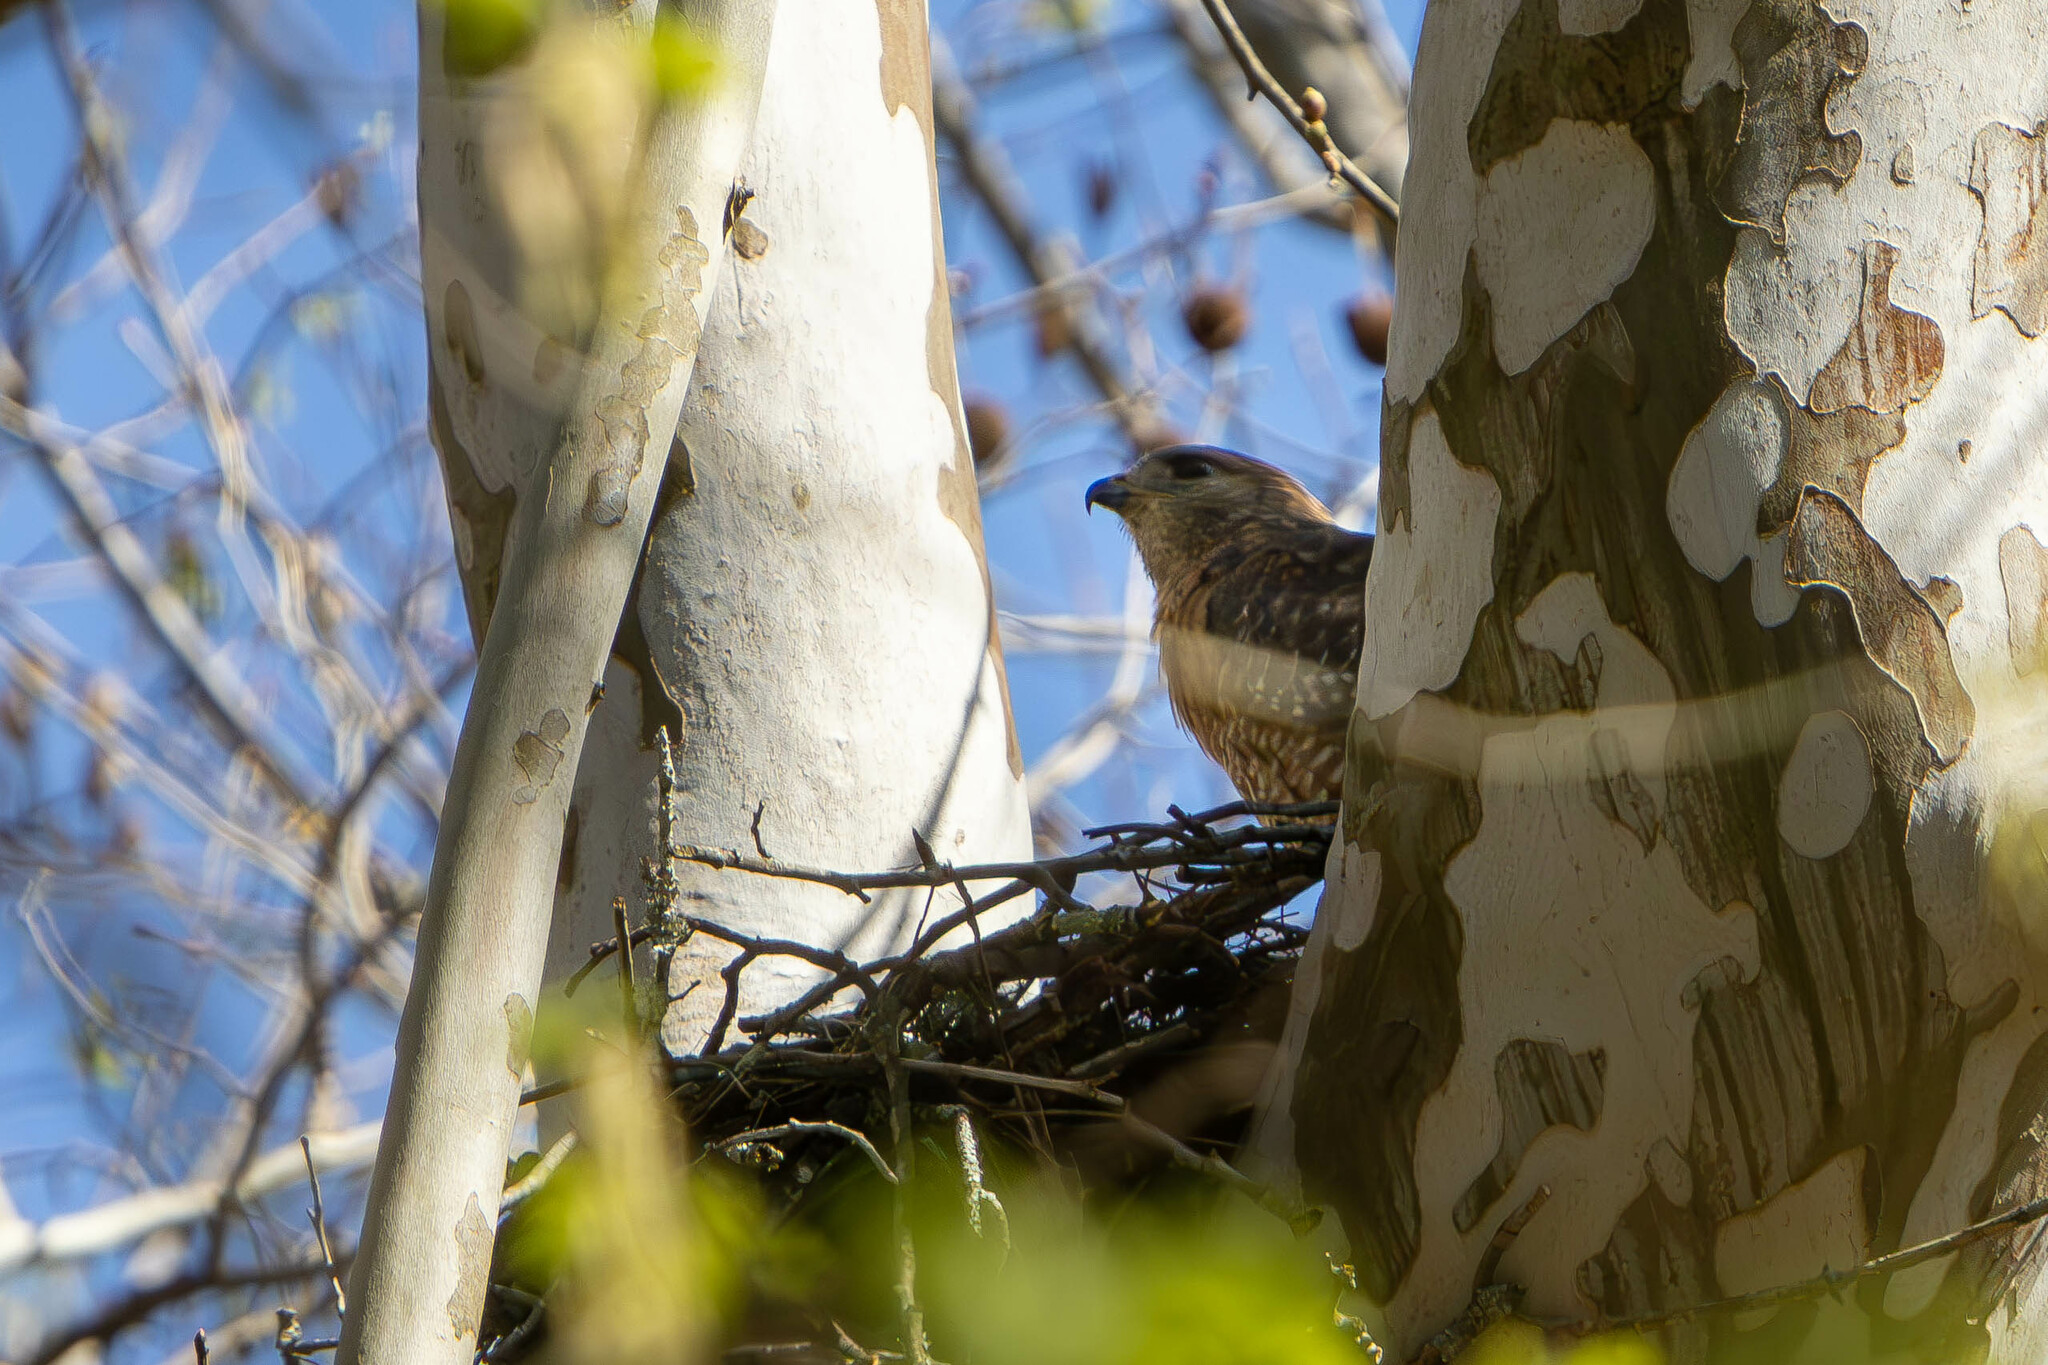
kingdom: Animalia
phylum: Chordata
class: Aves
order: Accipitriformes
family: Accipitridae
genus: Buteo
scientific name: Buteo lineatus
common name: Red-shouldered hawk
